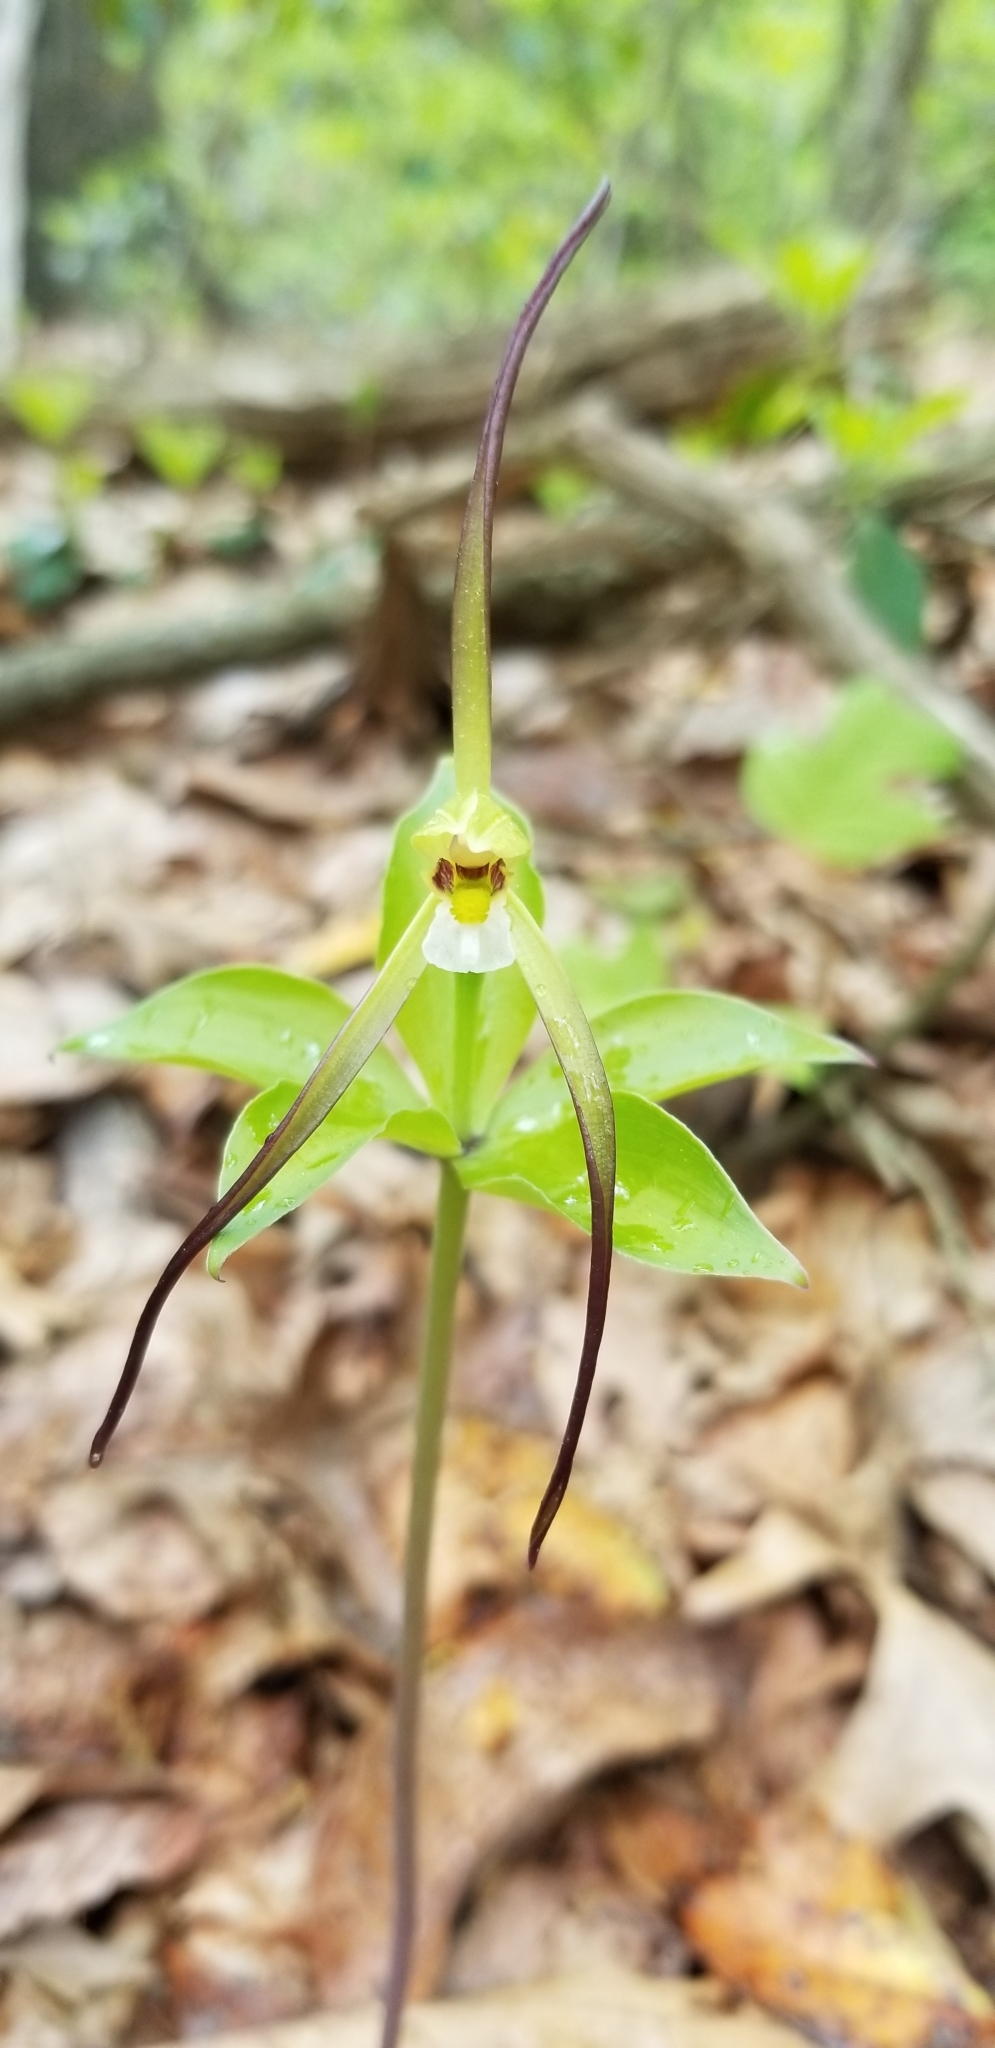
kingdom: Plantae
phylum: Tracheophyta
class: Liliopsida
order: Asparagales
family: Orchidaceae
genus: Isotria
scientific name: Isotria verticillata
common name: Large whorled pogonia
